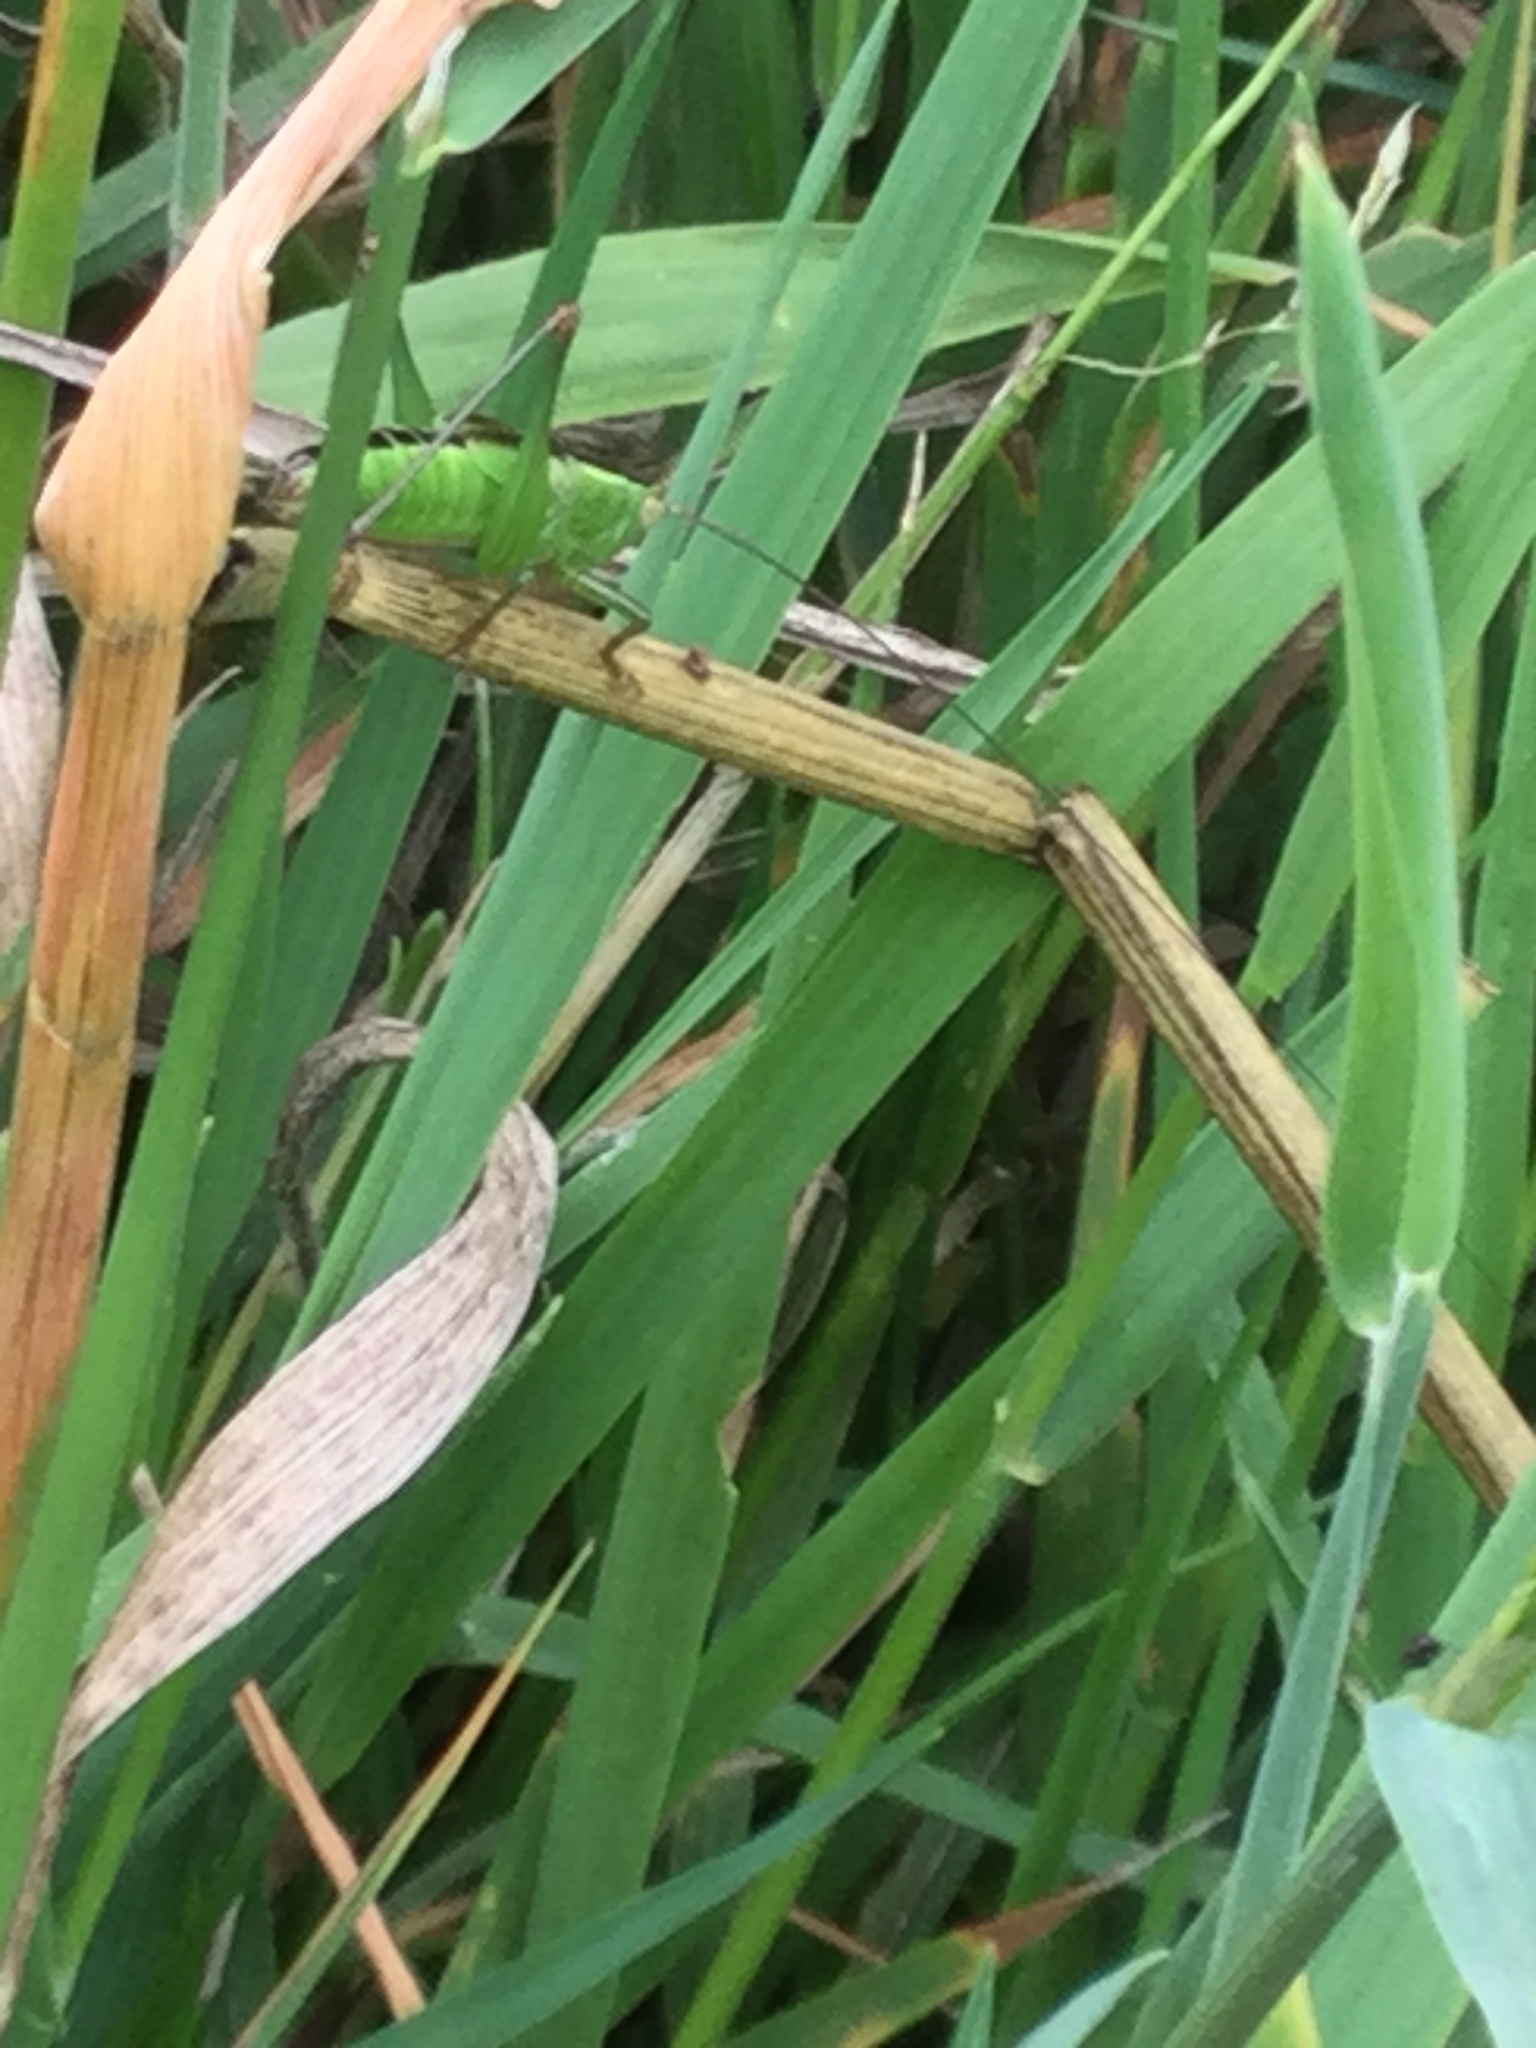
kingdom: Animalia
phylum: Arthropoda
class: Insecta
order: Orthoptera
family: Tettigoniidae
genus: Conocephalus
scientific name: Conocephalus fuscus
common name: Long-winged conehead
